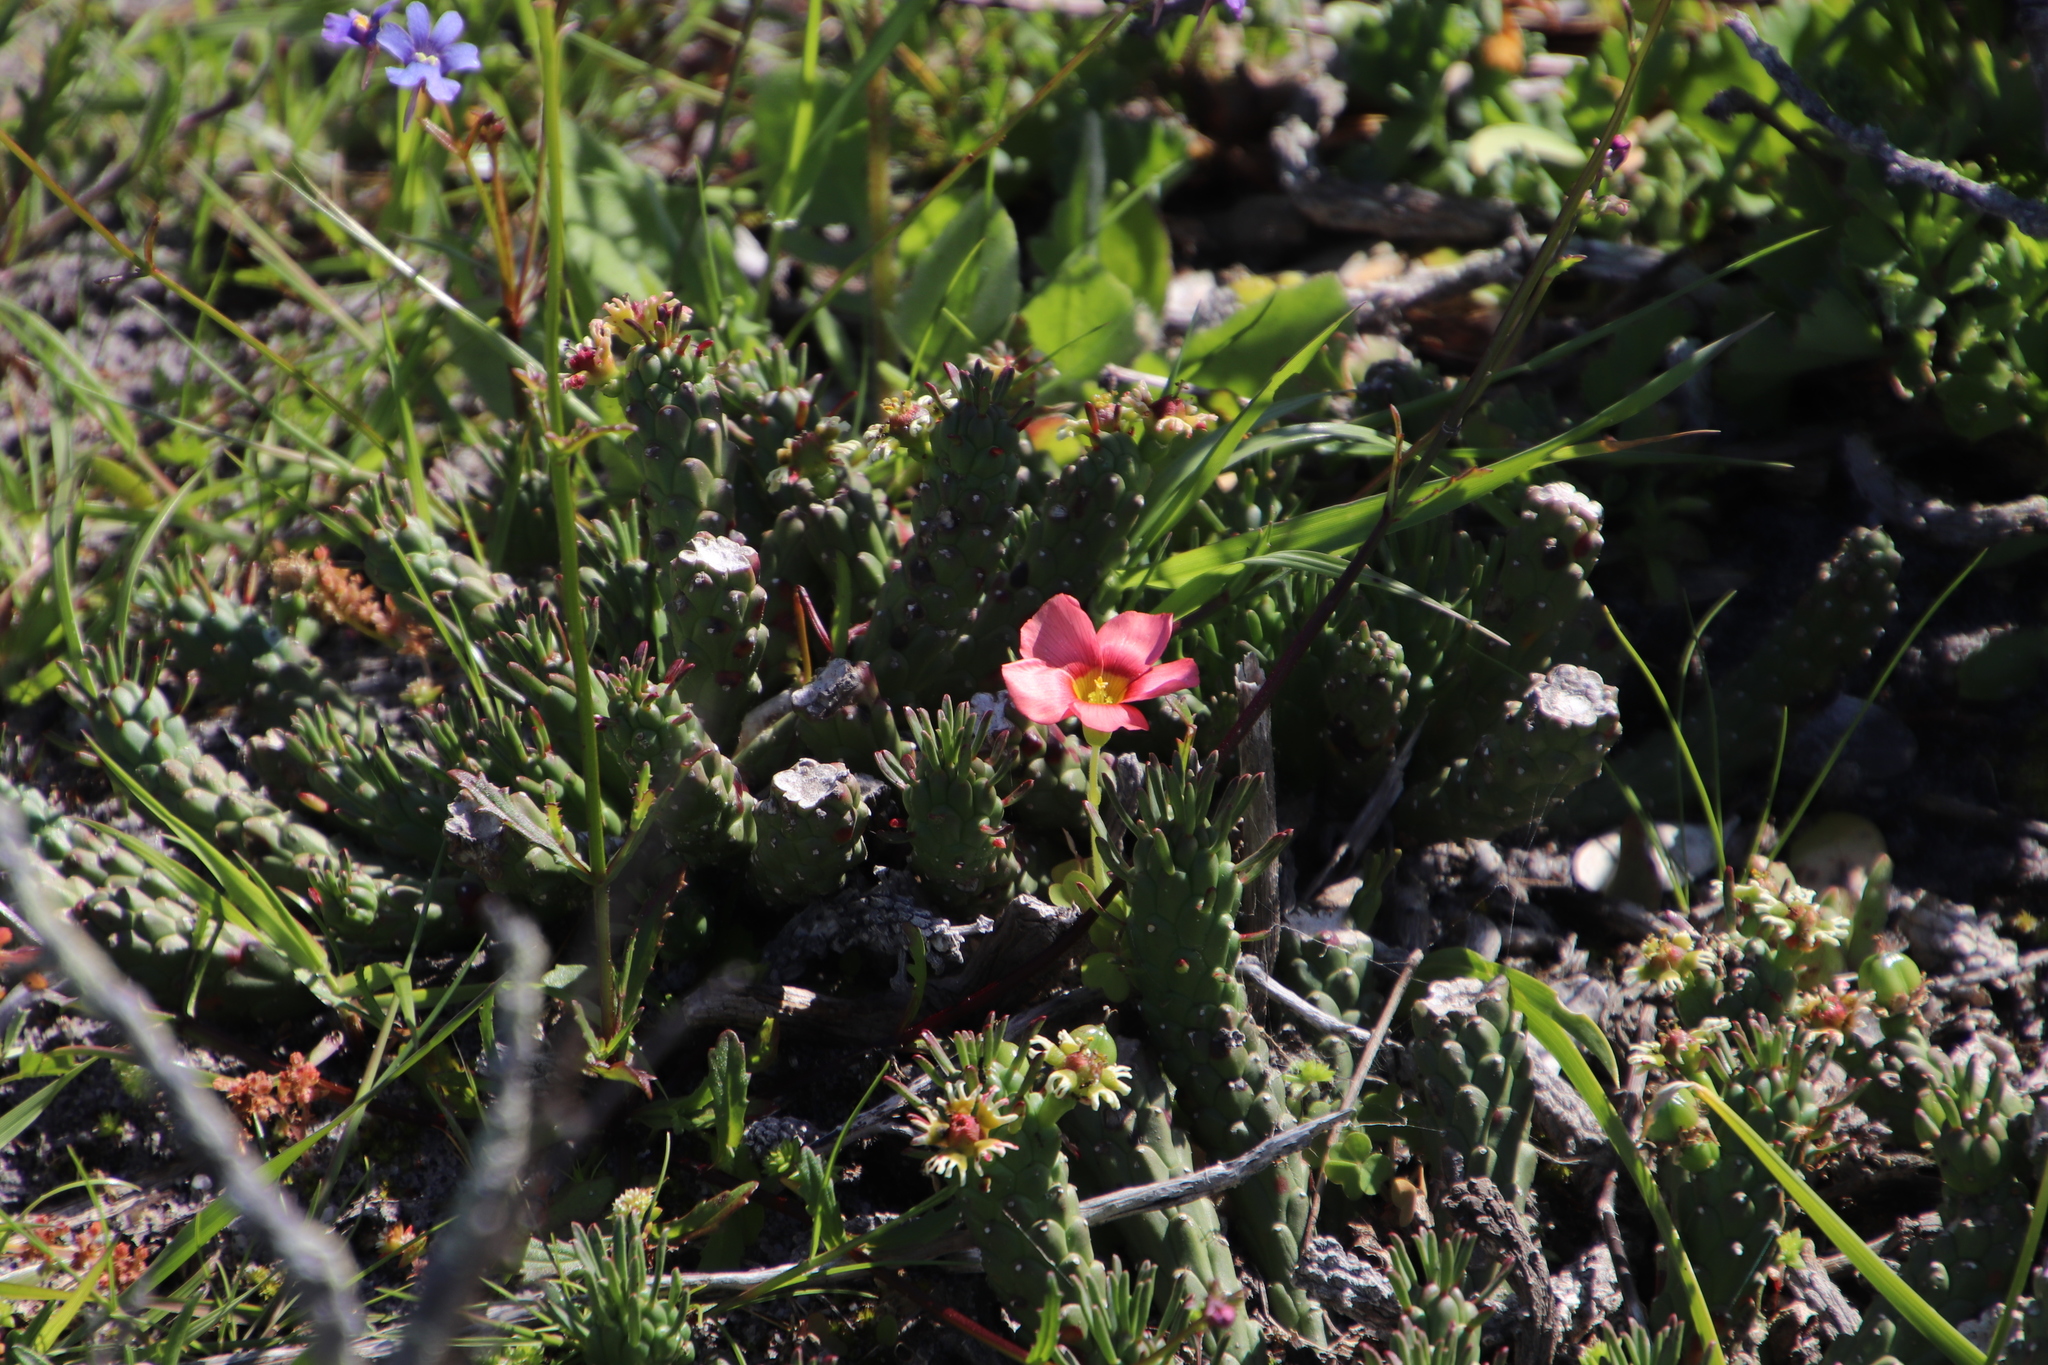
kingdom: Plantae
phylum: Tracheophyta
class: Magnoliopsida
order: Oxalidales
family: Oxalidaceae
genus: Oxalis
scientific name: Oxalis obtusa
